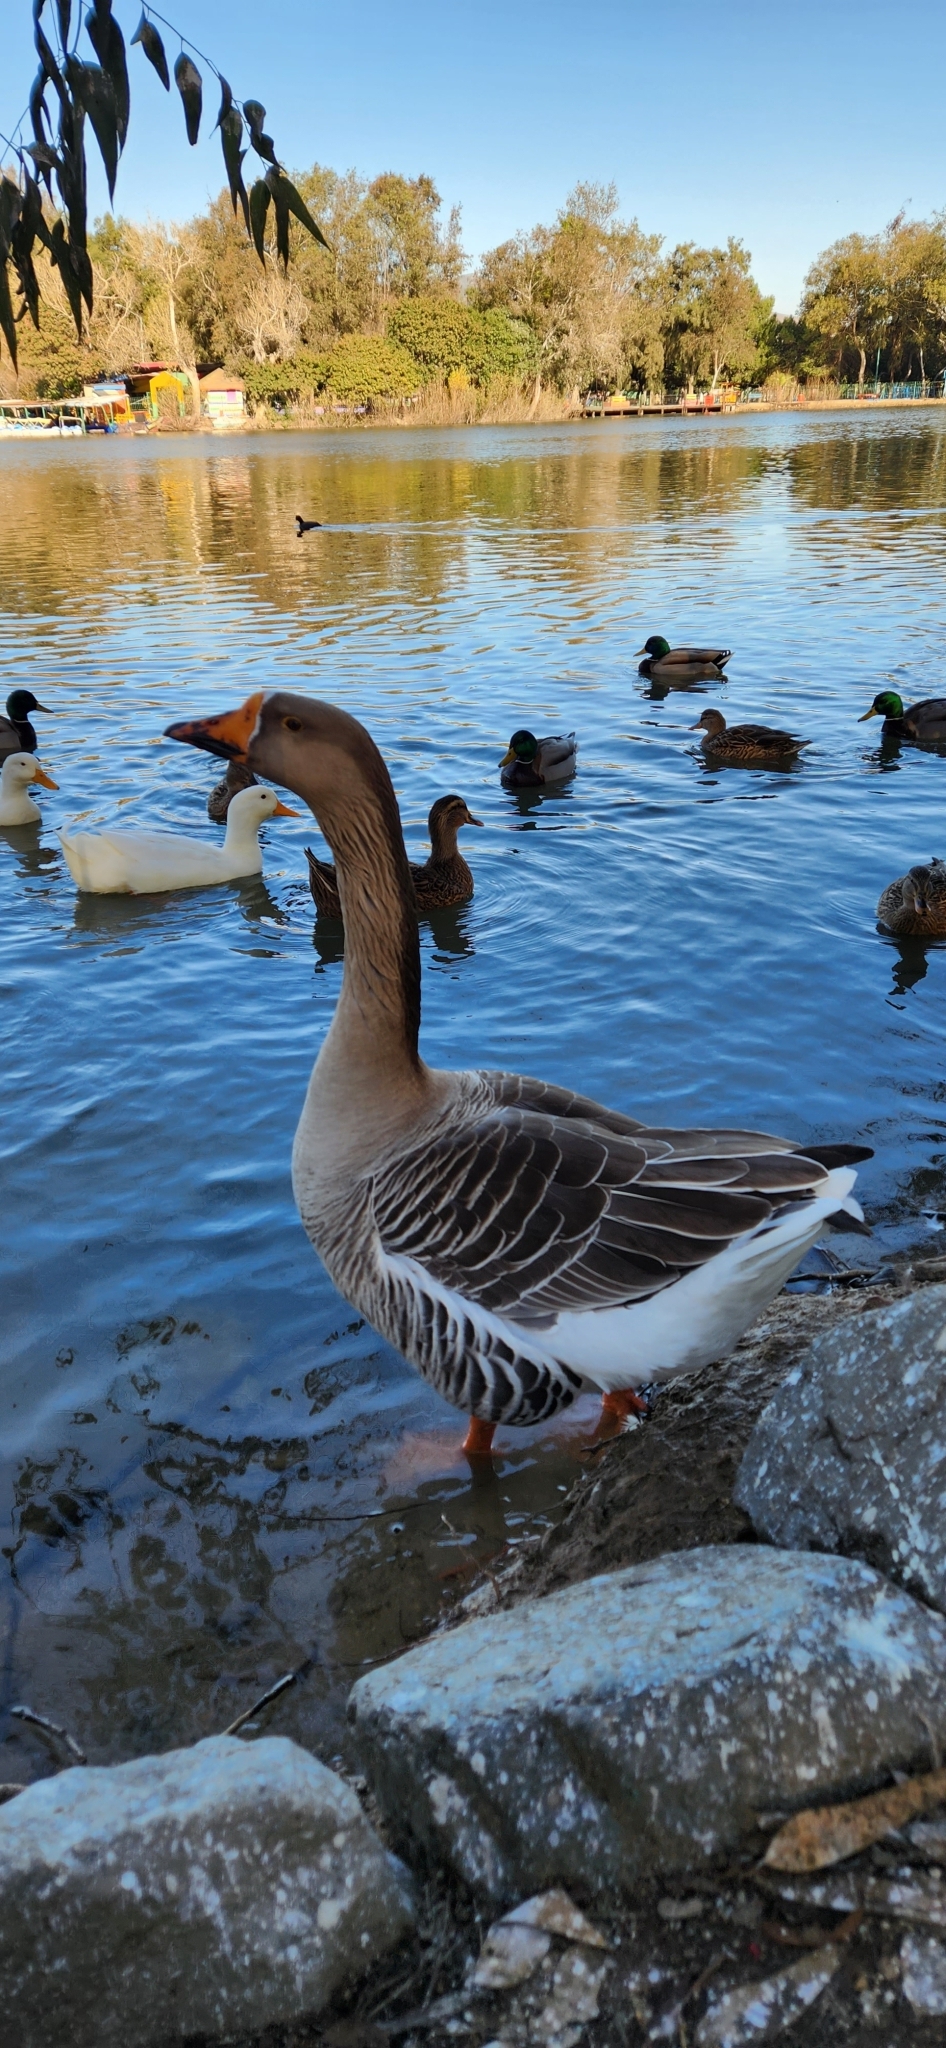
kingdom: Animalia
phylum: Chordata
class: Aves
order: Anseriformes
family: Anatidae
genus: Anser
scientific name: Anser
